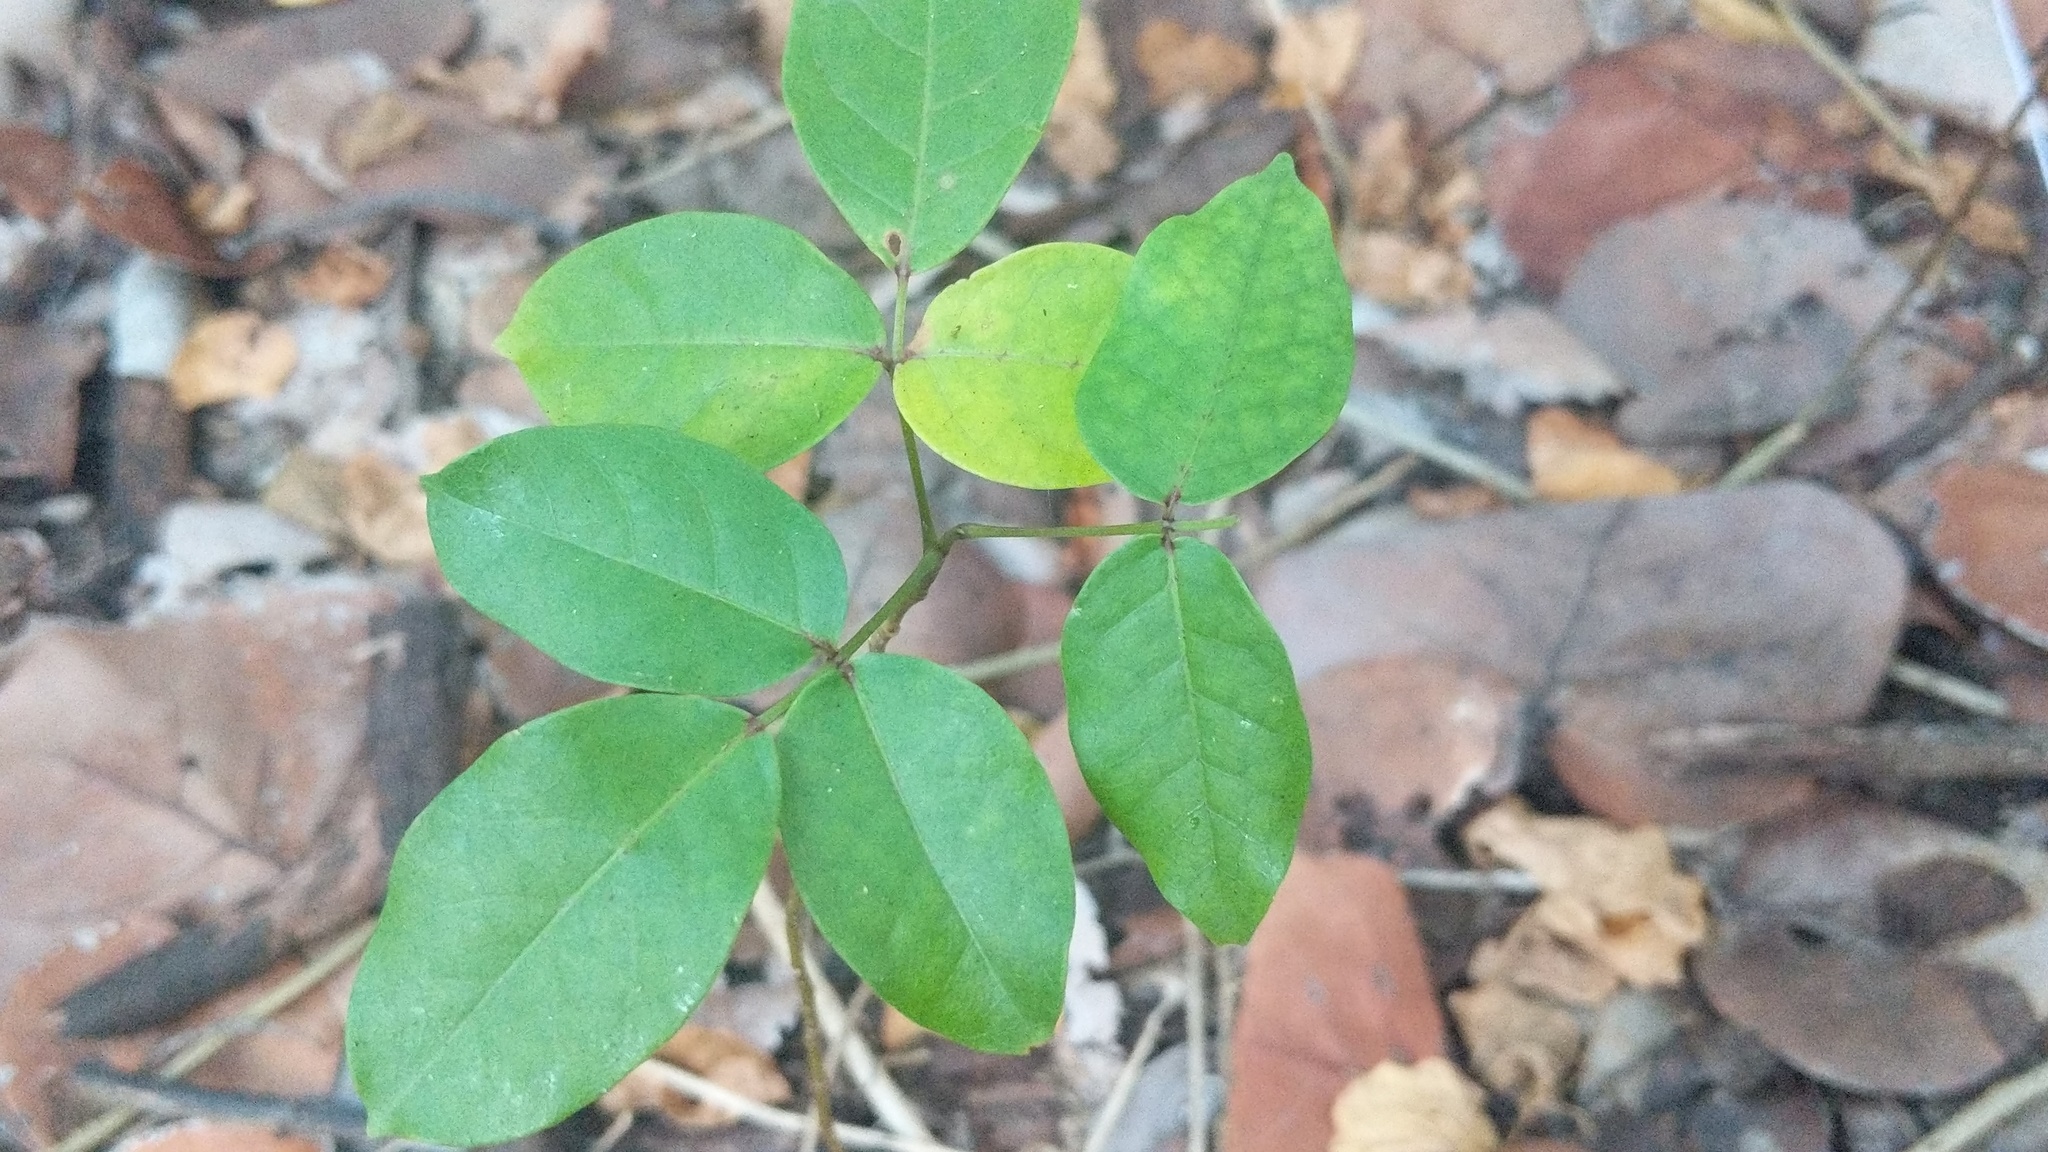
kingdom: Plantae
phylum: Tracheophyta
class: Magnoliopsida
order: Sapindales
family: Burseraceae
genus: Bursera
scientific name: Bursera simaruba
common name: Turpentine tree
